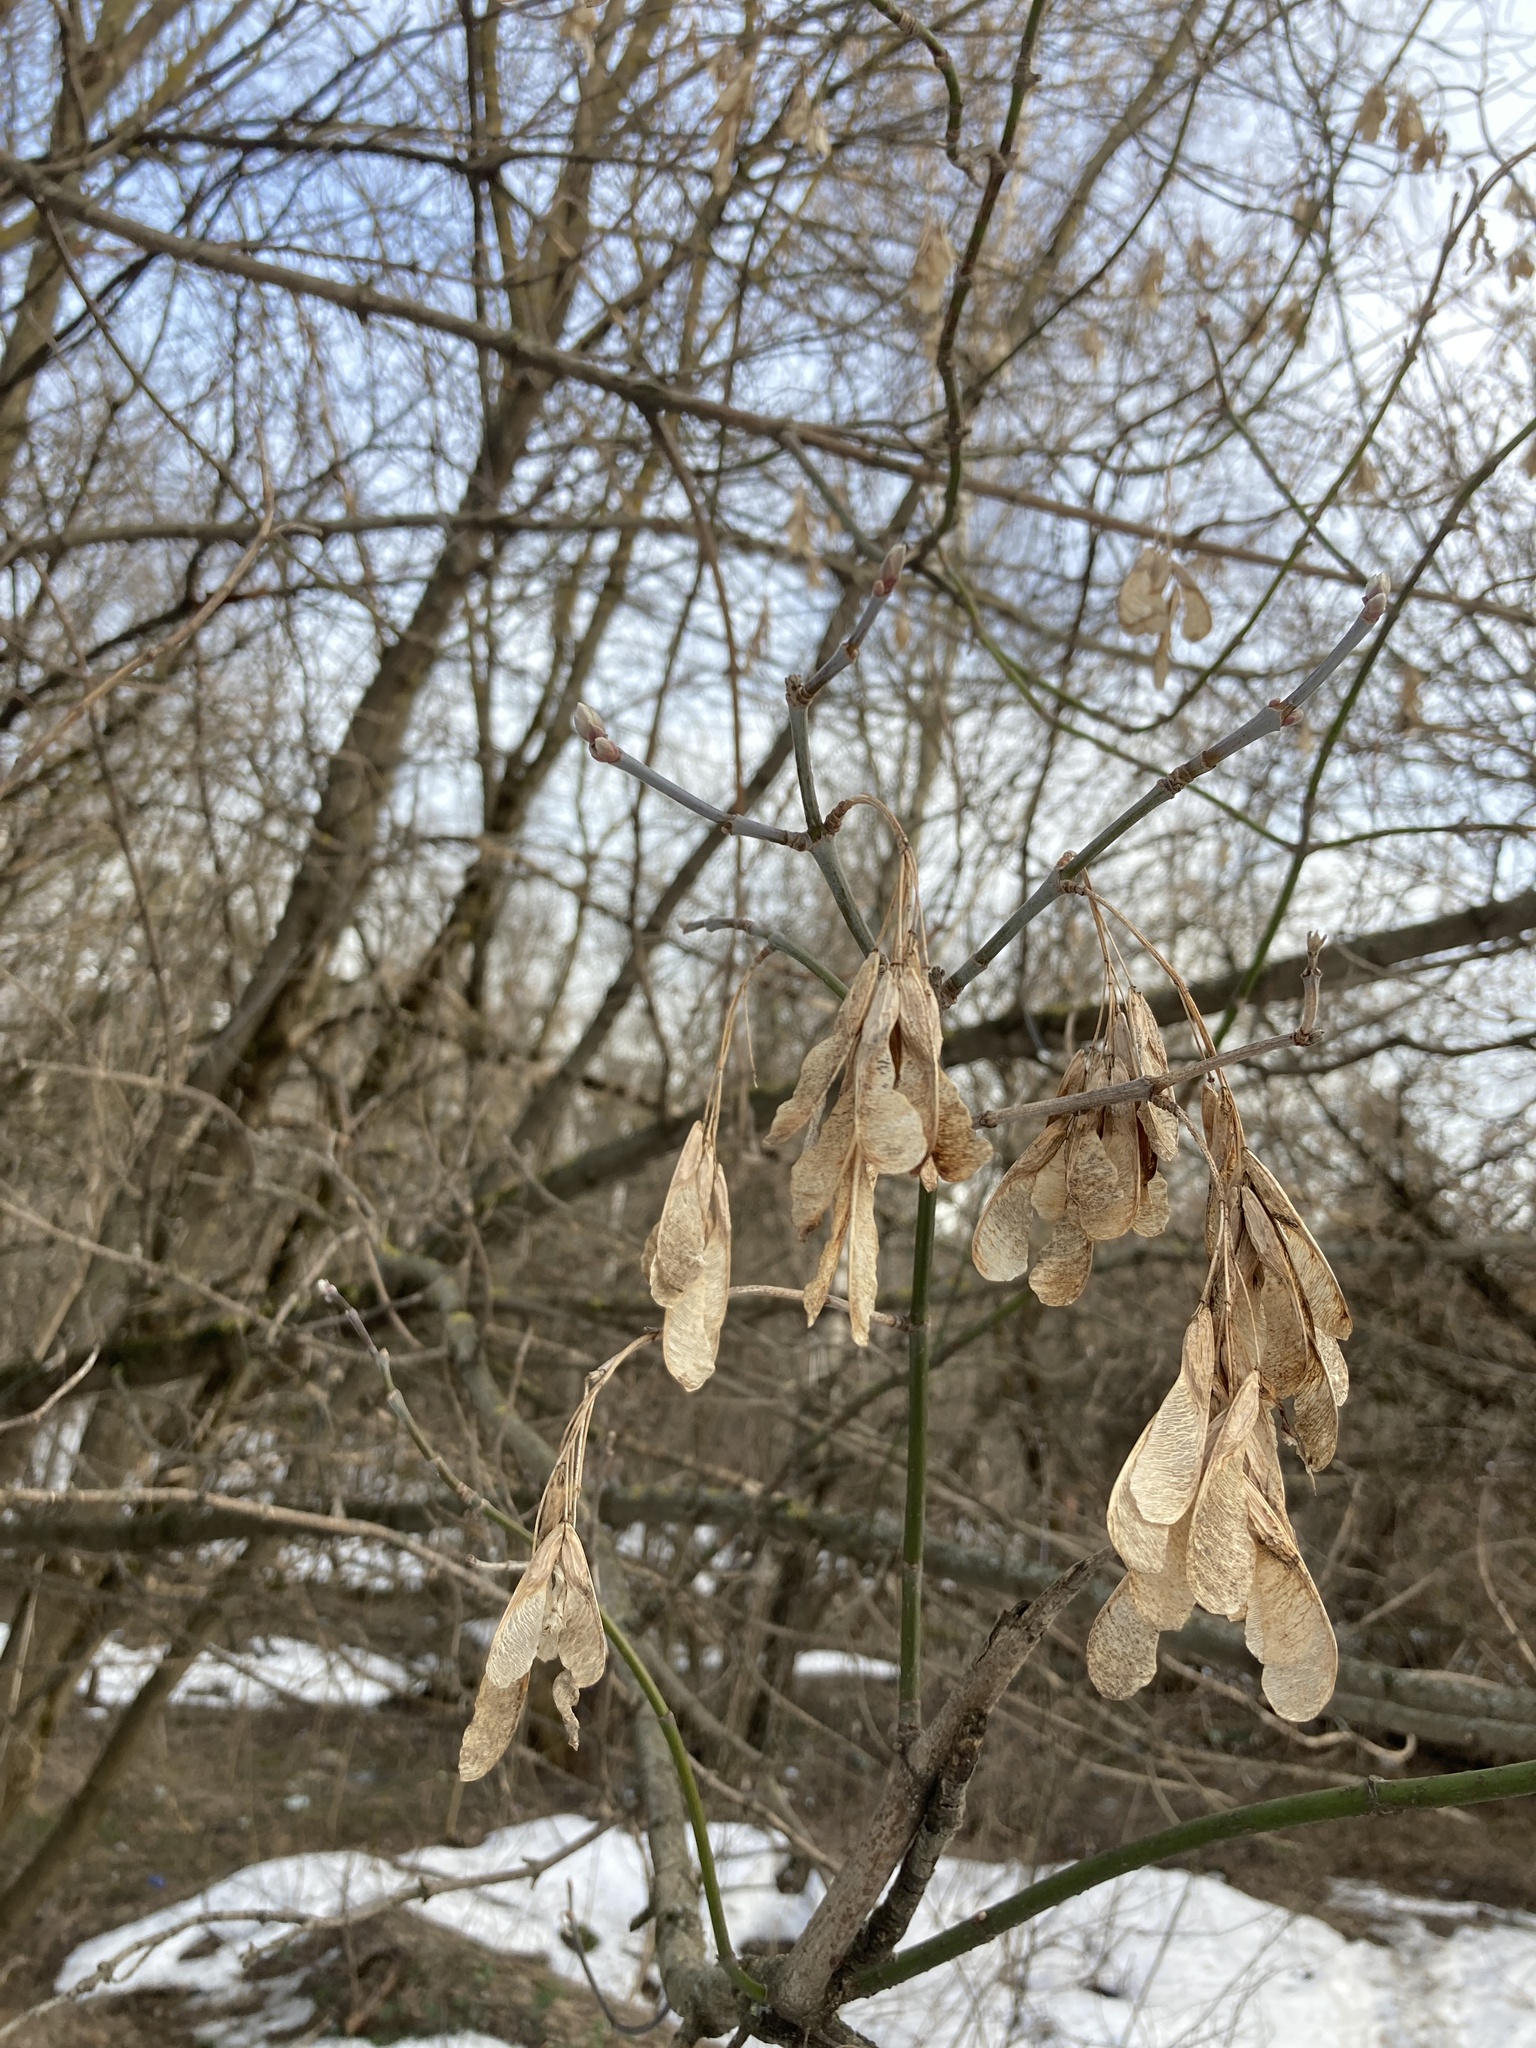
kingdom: Plantae
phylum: Tracheophyta
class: Magnoliopsida
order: Sapindales
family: Sapindaceae
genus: Acer
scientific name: Acer negundo
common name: Ashleaf maple
